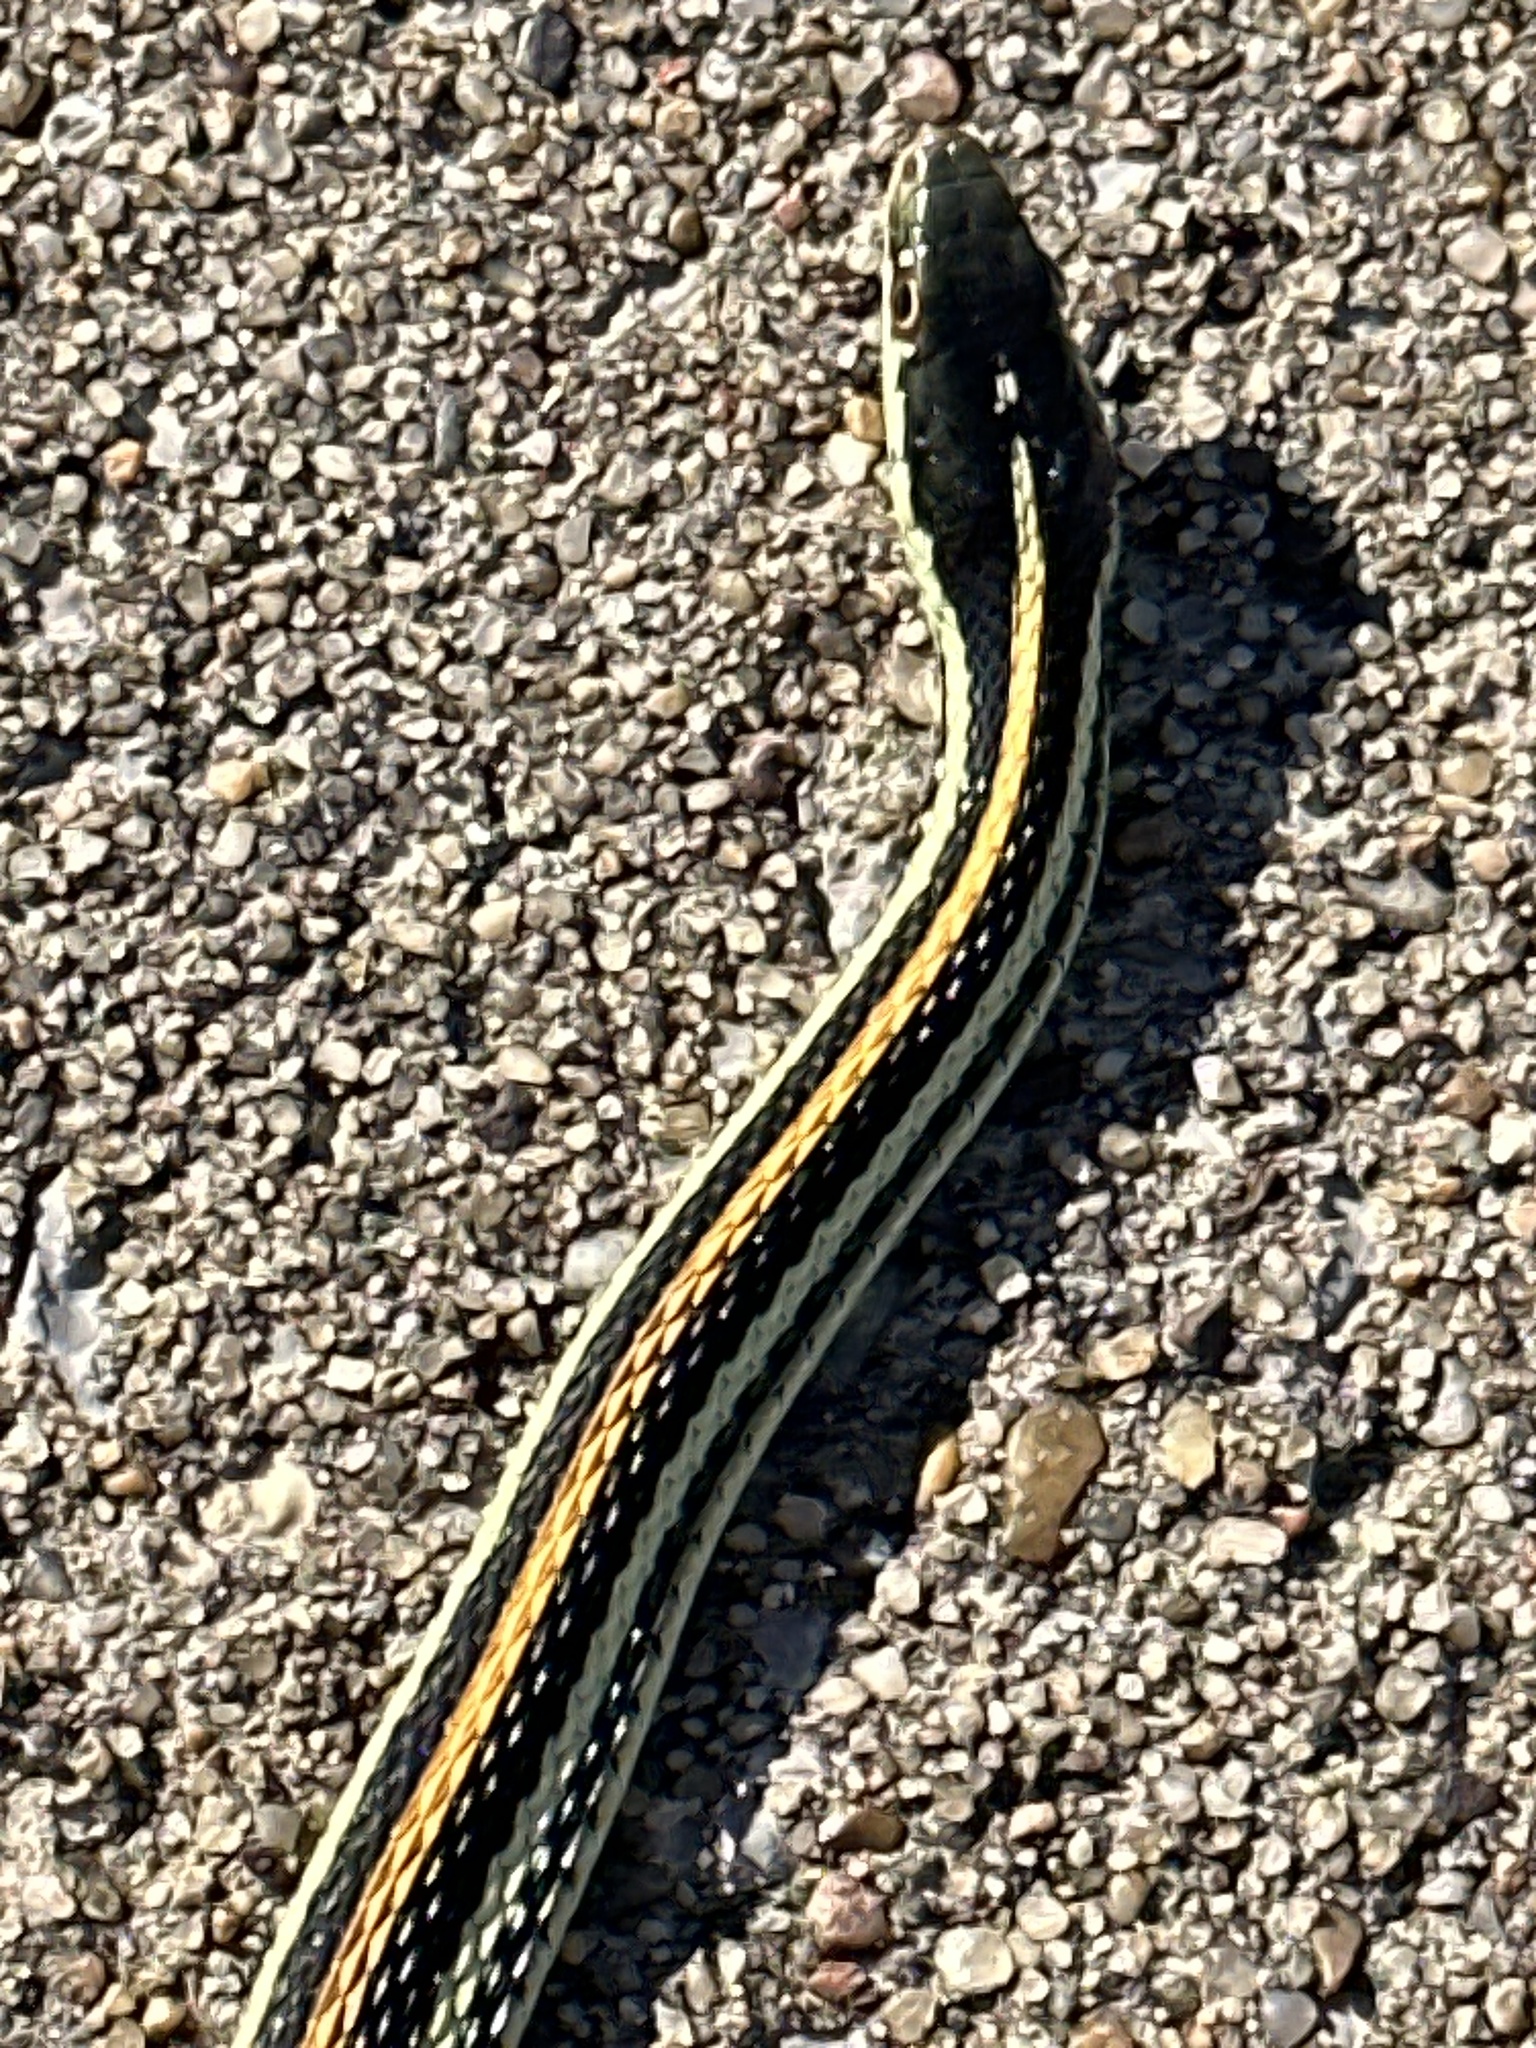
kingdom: Animalia
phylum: Chordata
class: Squamata
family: Colubridae
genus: Thamnophis
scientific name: Thamnophis proximus
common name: Western ribbon snake
